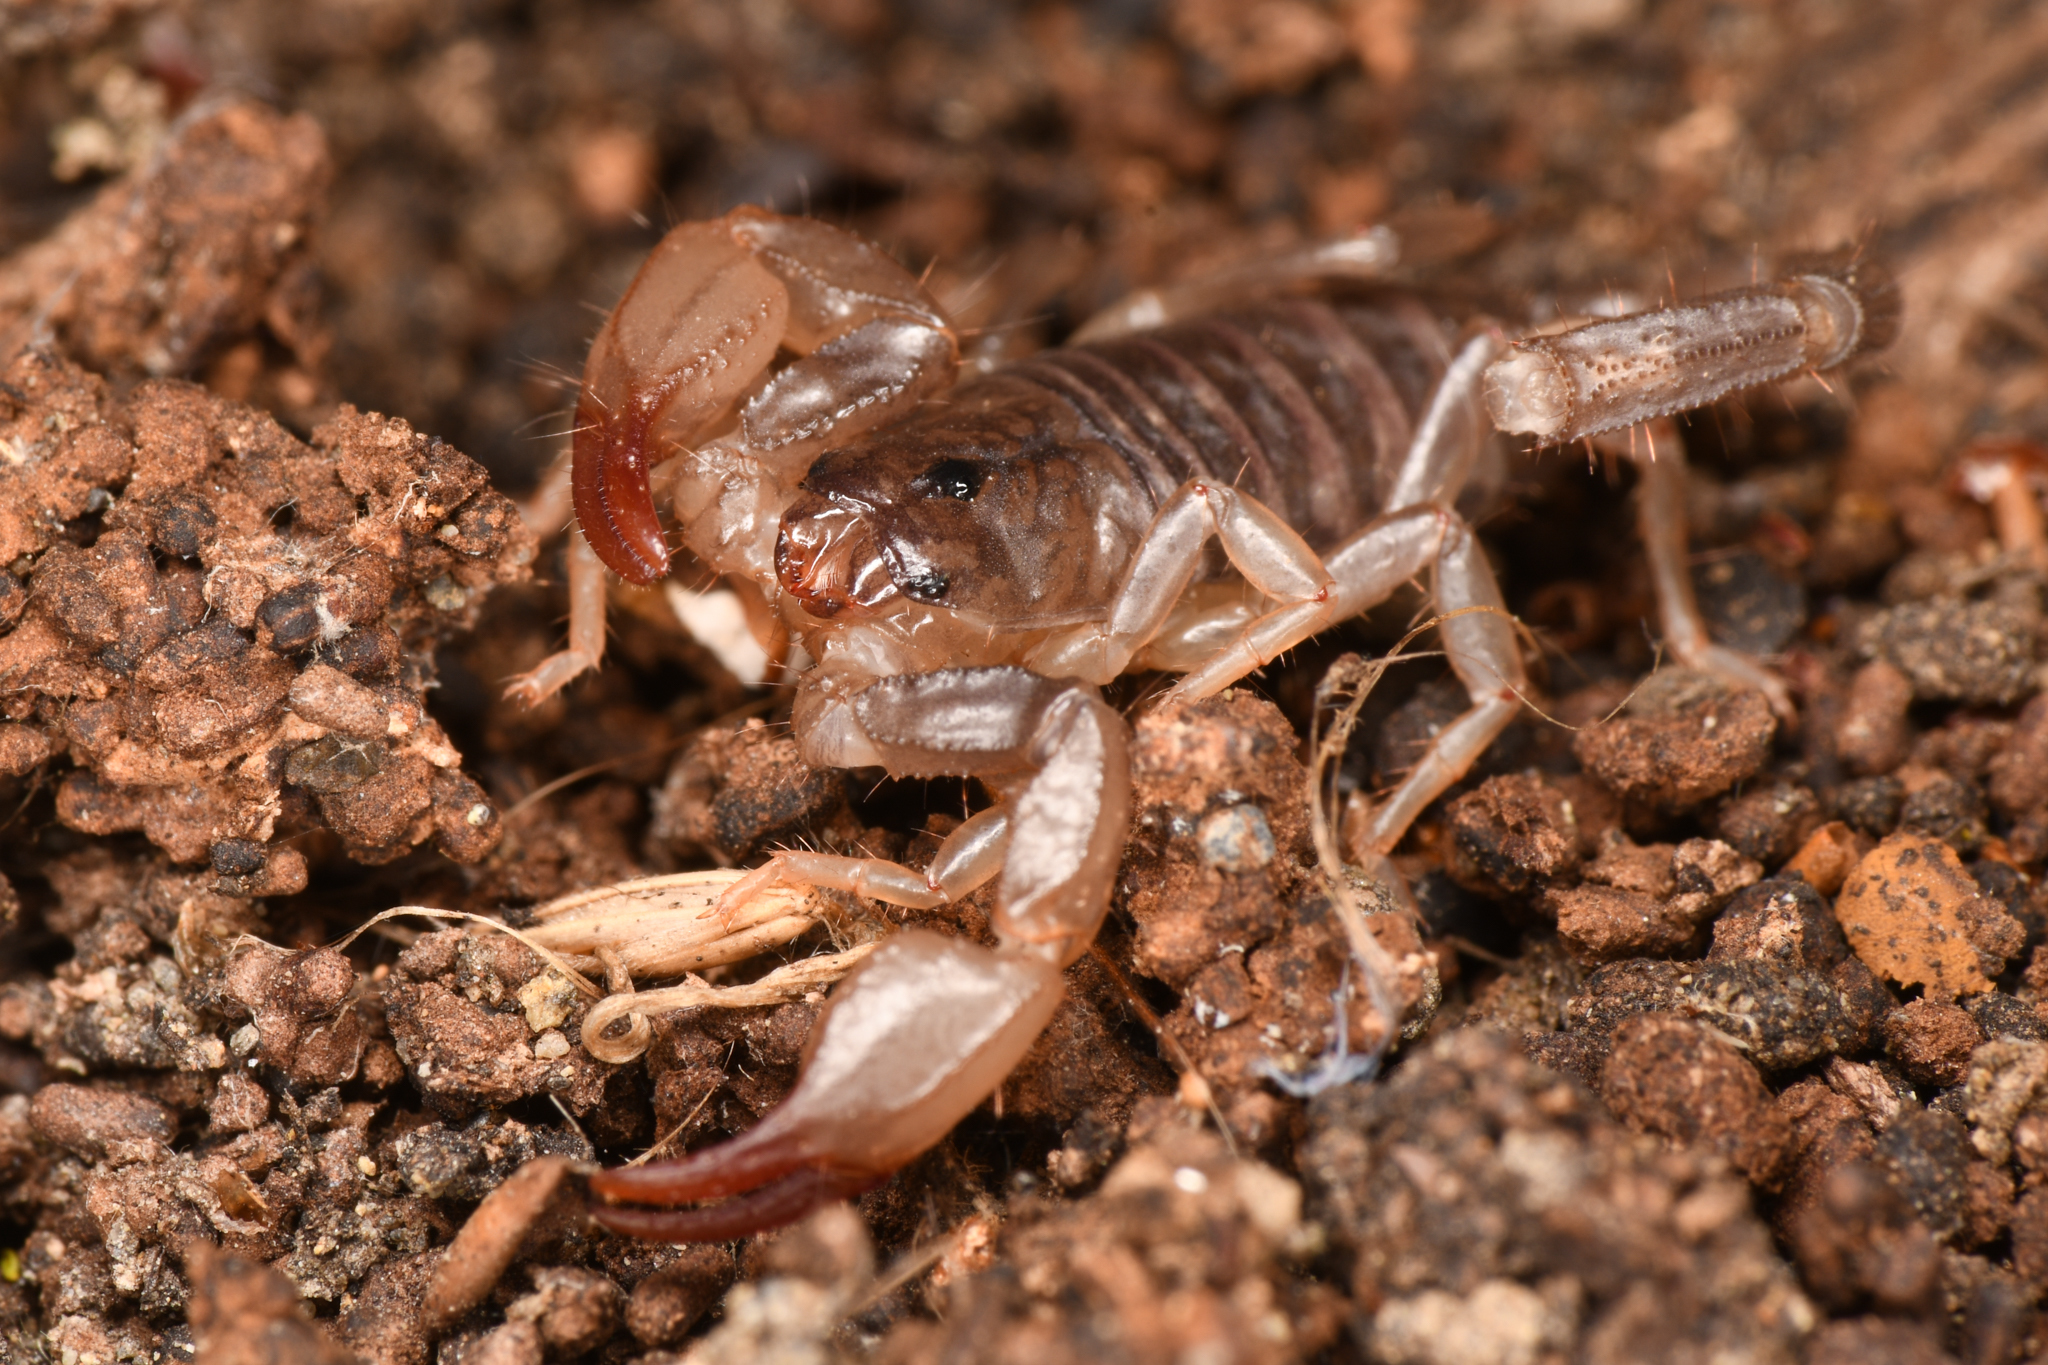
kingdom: Animalia
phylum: Arthropoda
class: Arachnida
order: Scorpiones
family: Chactidae
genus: Uroctonus
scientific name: Uroctonus mordax
